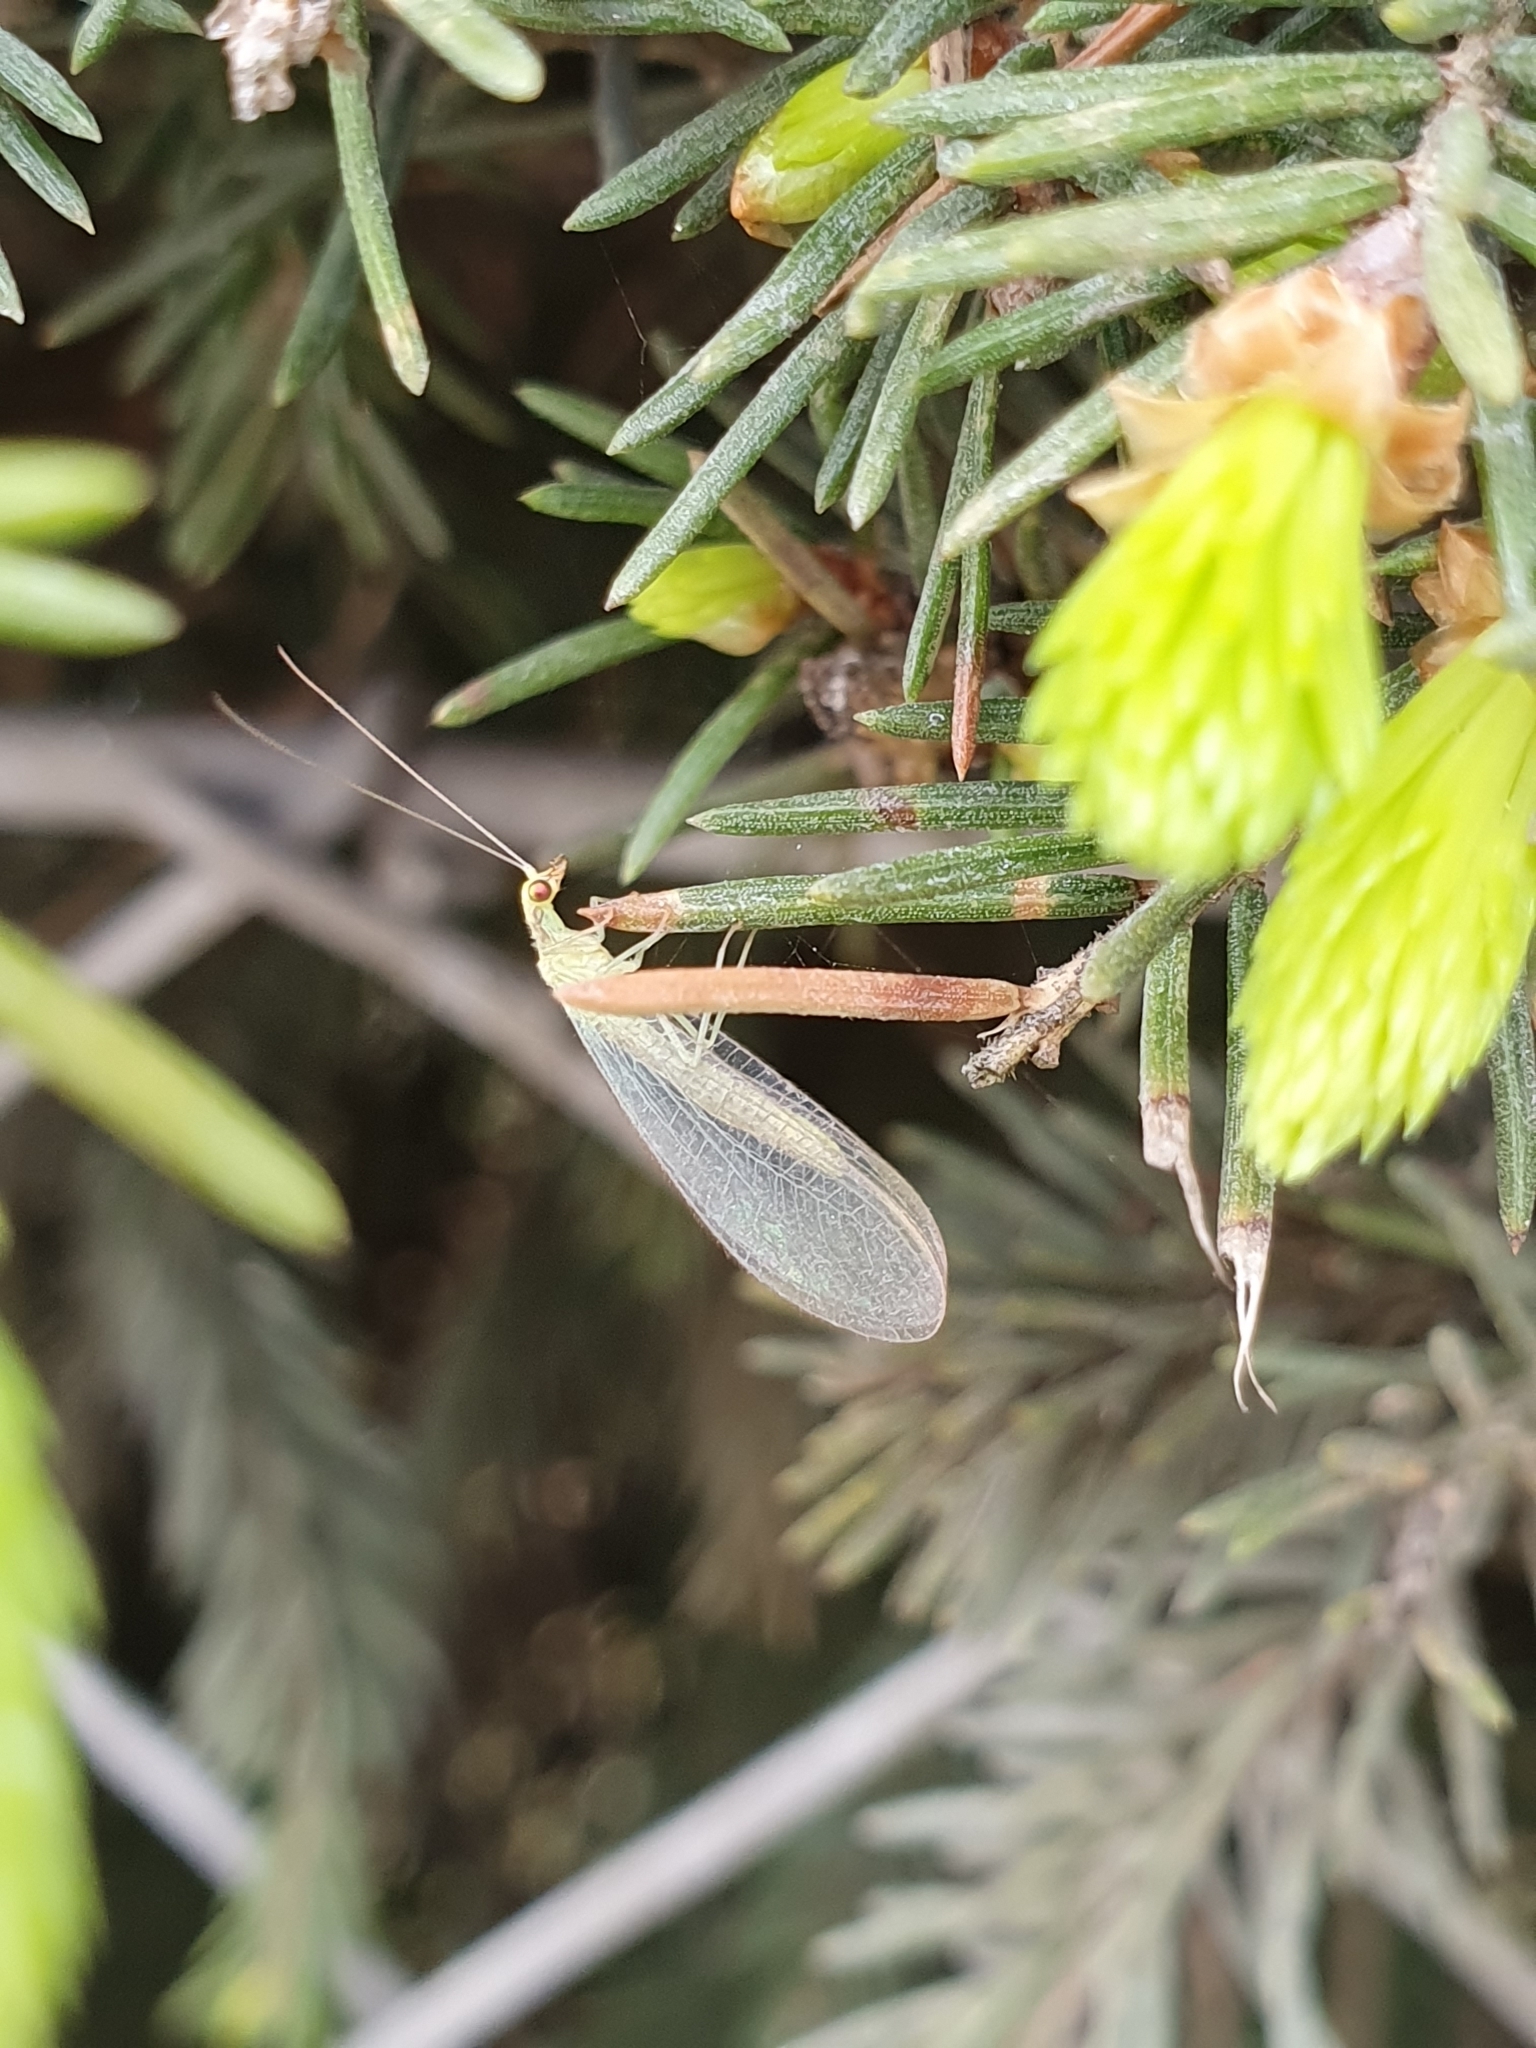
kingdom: Animalia
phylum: Arthropoda
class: Insecta
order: Neuroptera
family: Chrysopidae
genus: Chrysoperla
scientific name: Chrysoperla
